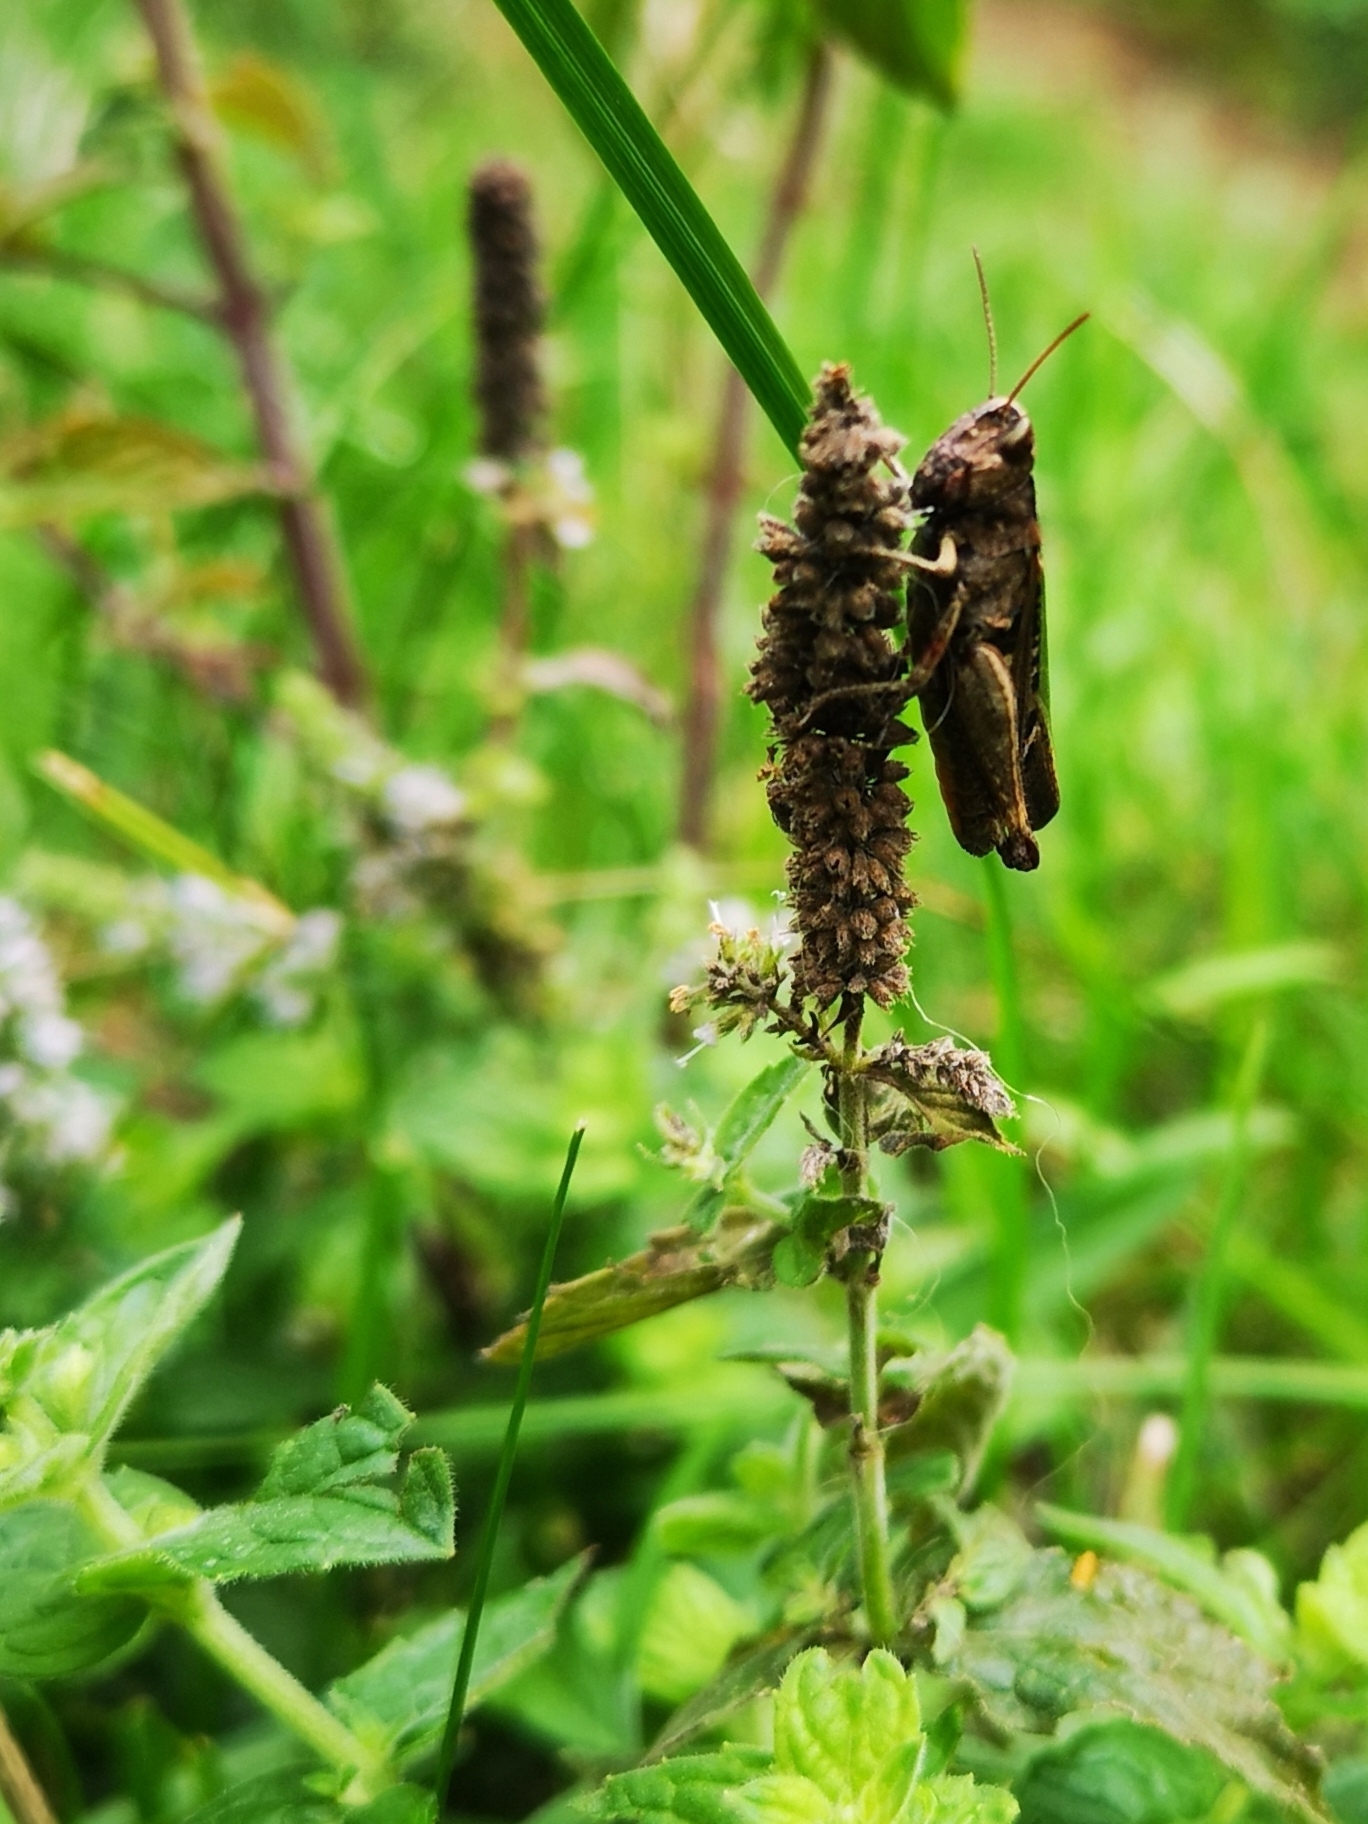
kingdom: Animalia
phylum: Arthropoda
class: Insecta
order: Orthoptera
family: Acrididae
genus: Omocestus
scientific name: Omocestus rufipes
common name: Woodland grasshopper
